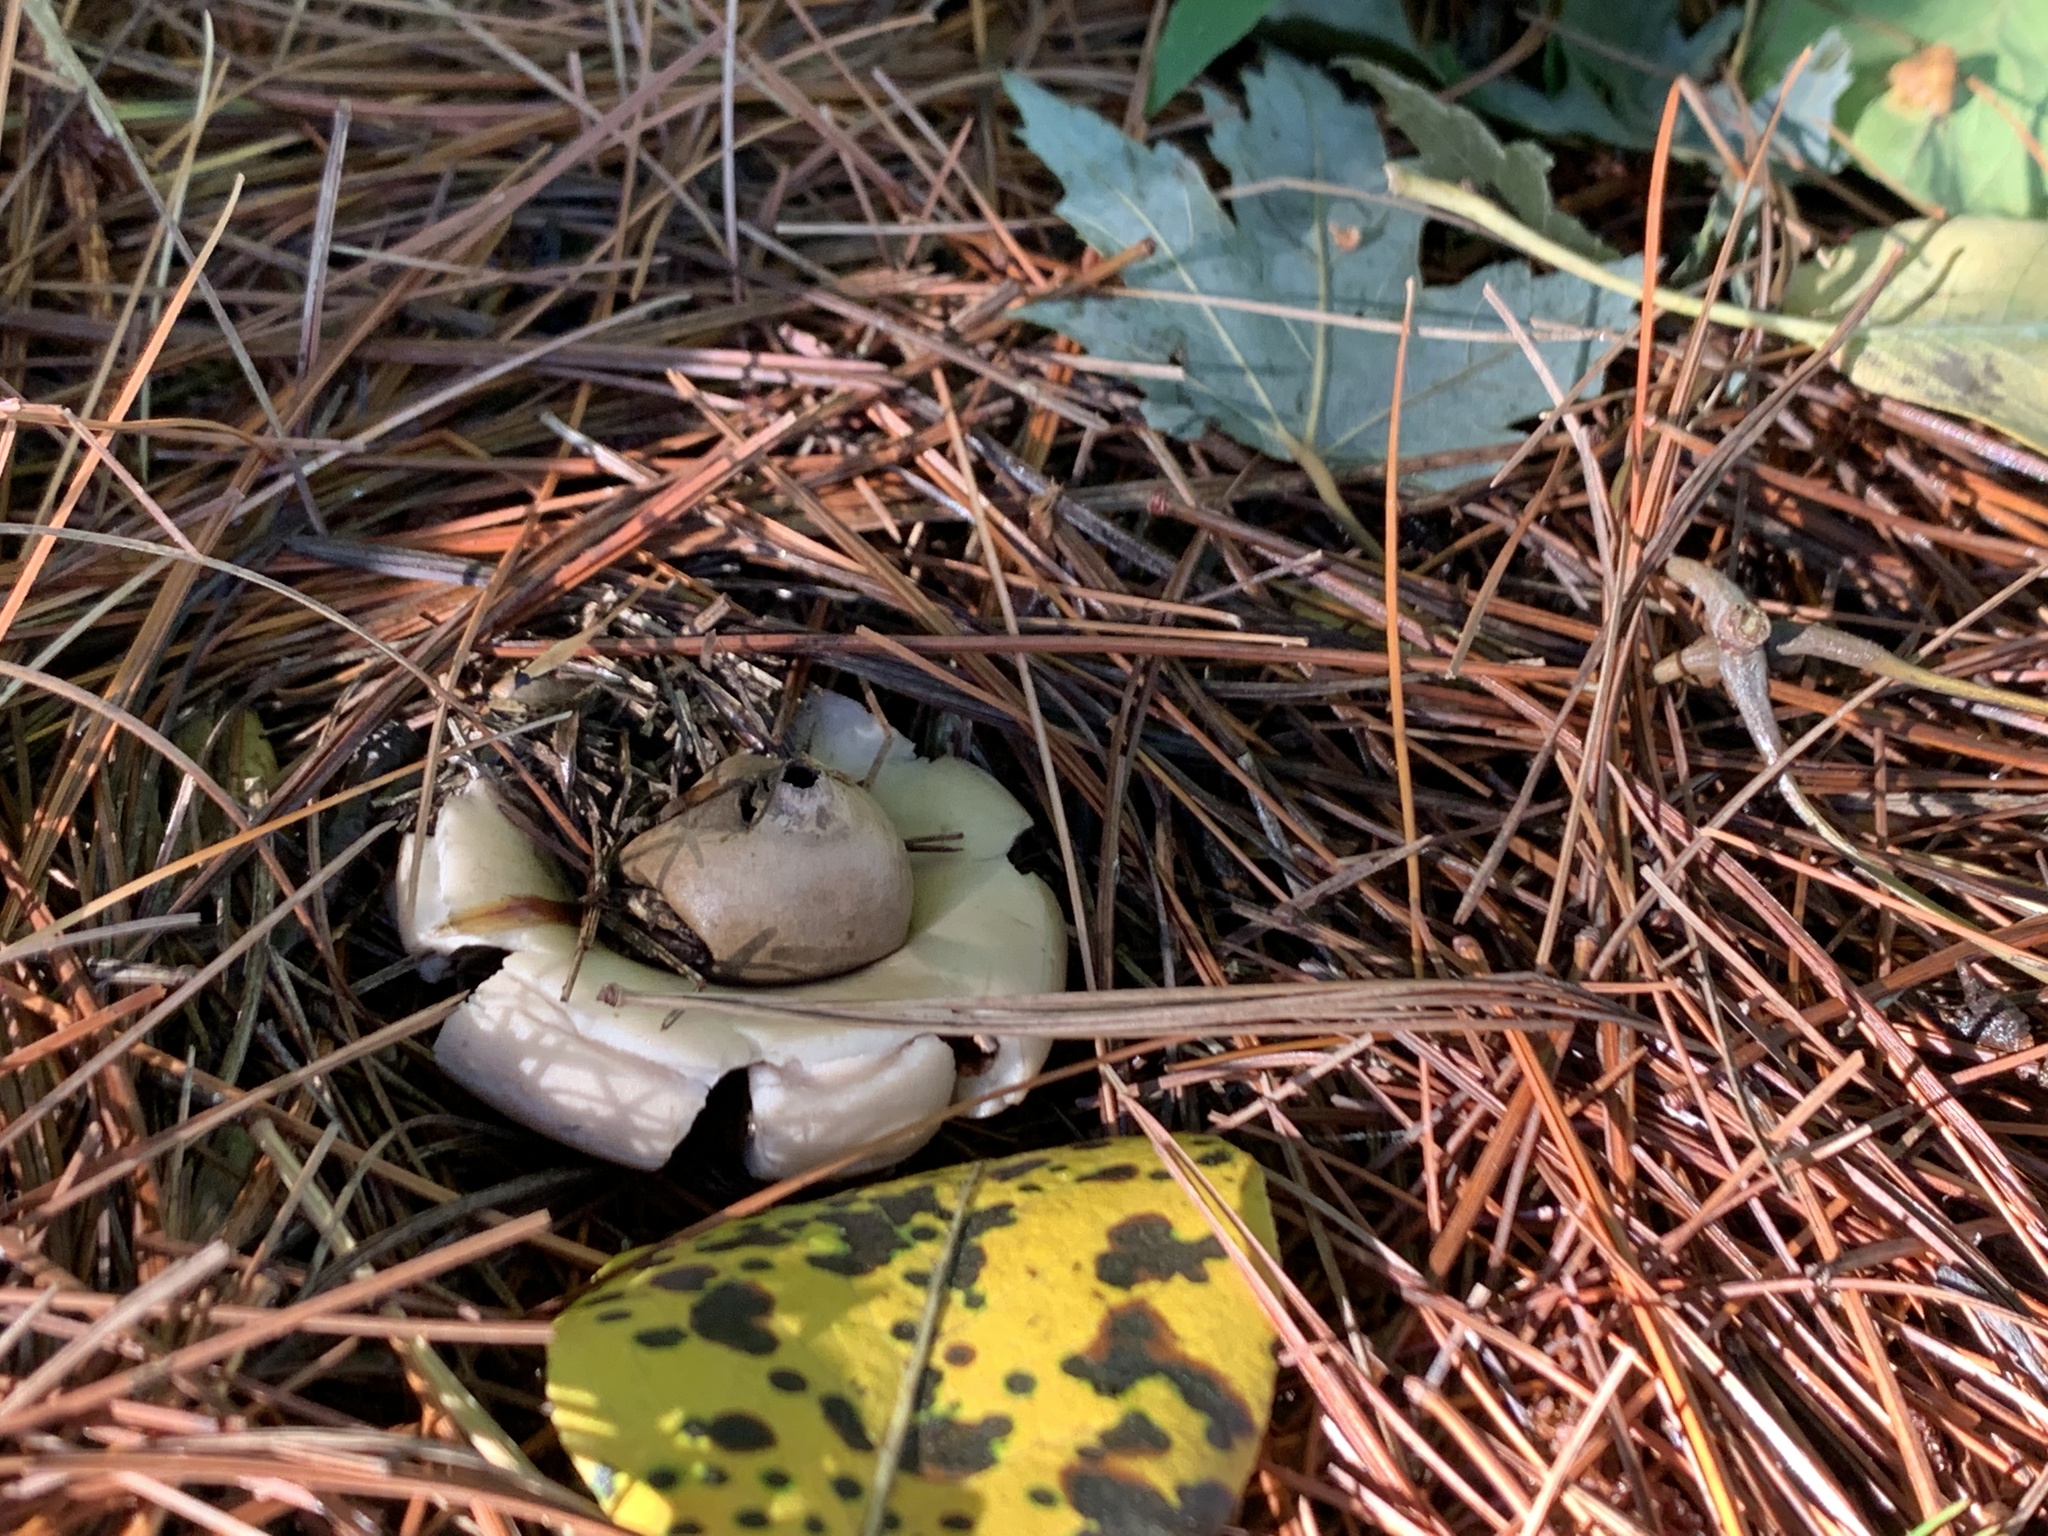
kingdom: Fungi
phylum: Basidiomycota
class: Agaricomycetes
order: Geastrales
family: Geastraceae
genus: Geastrum
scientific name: Geastrum saccatum
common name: Rounded earthstar
